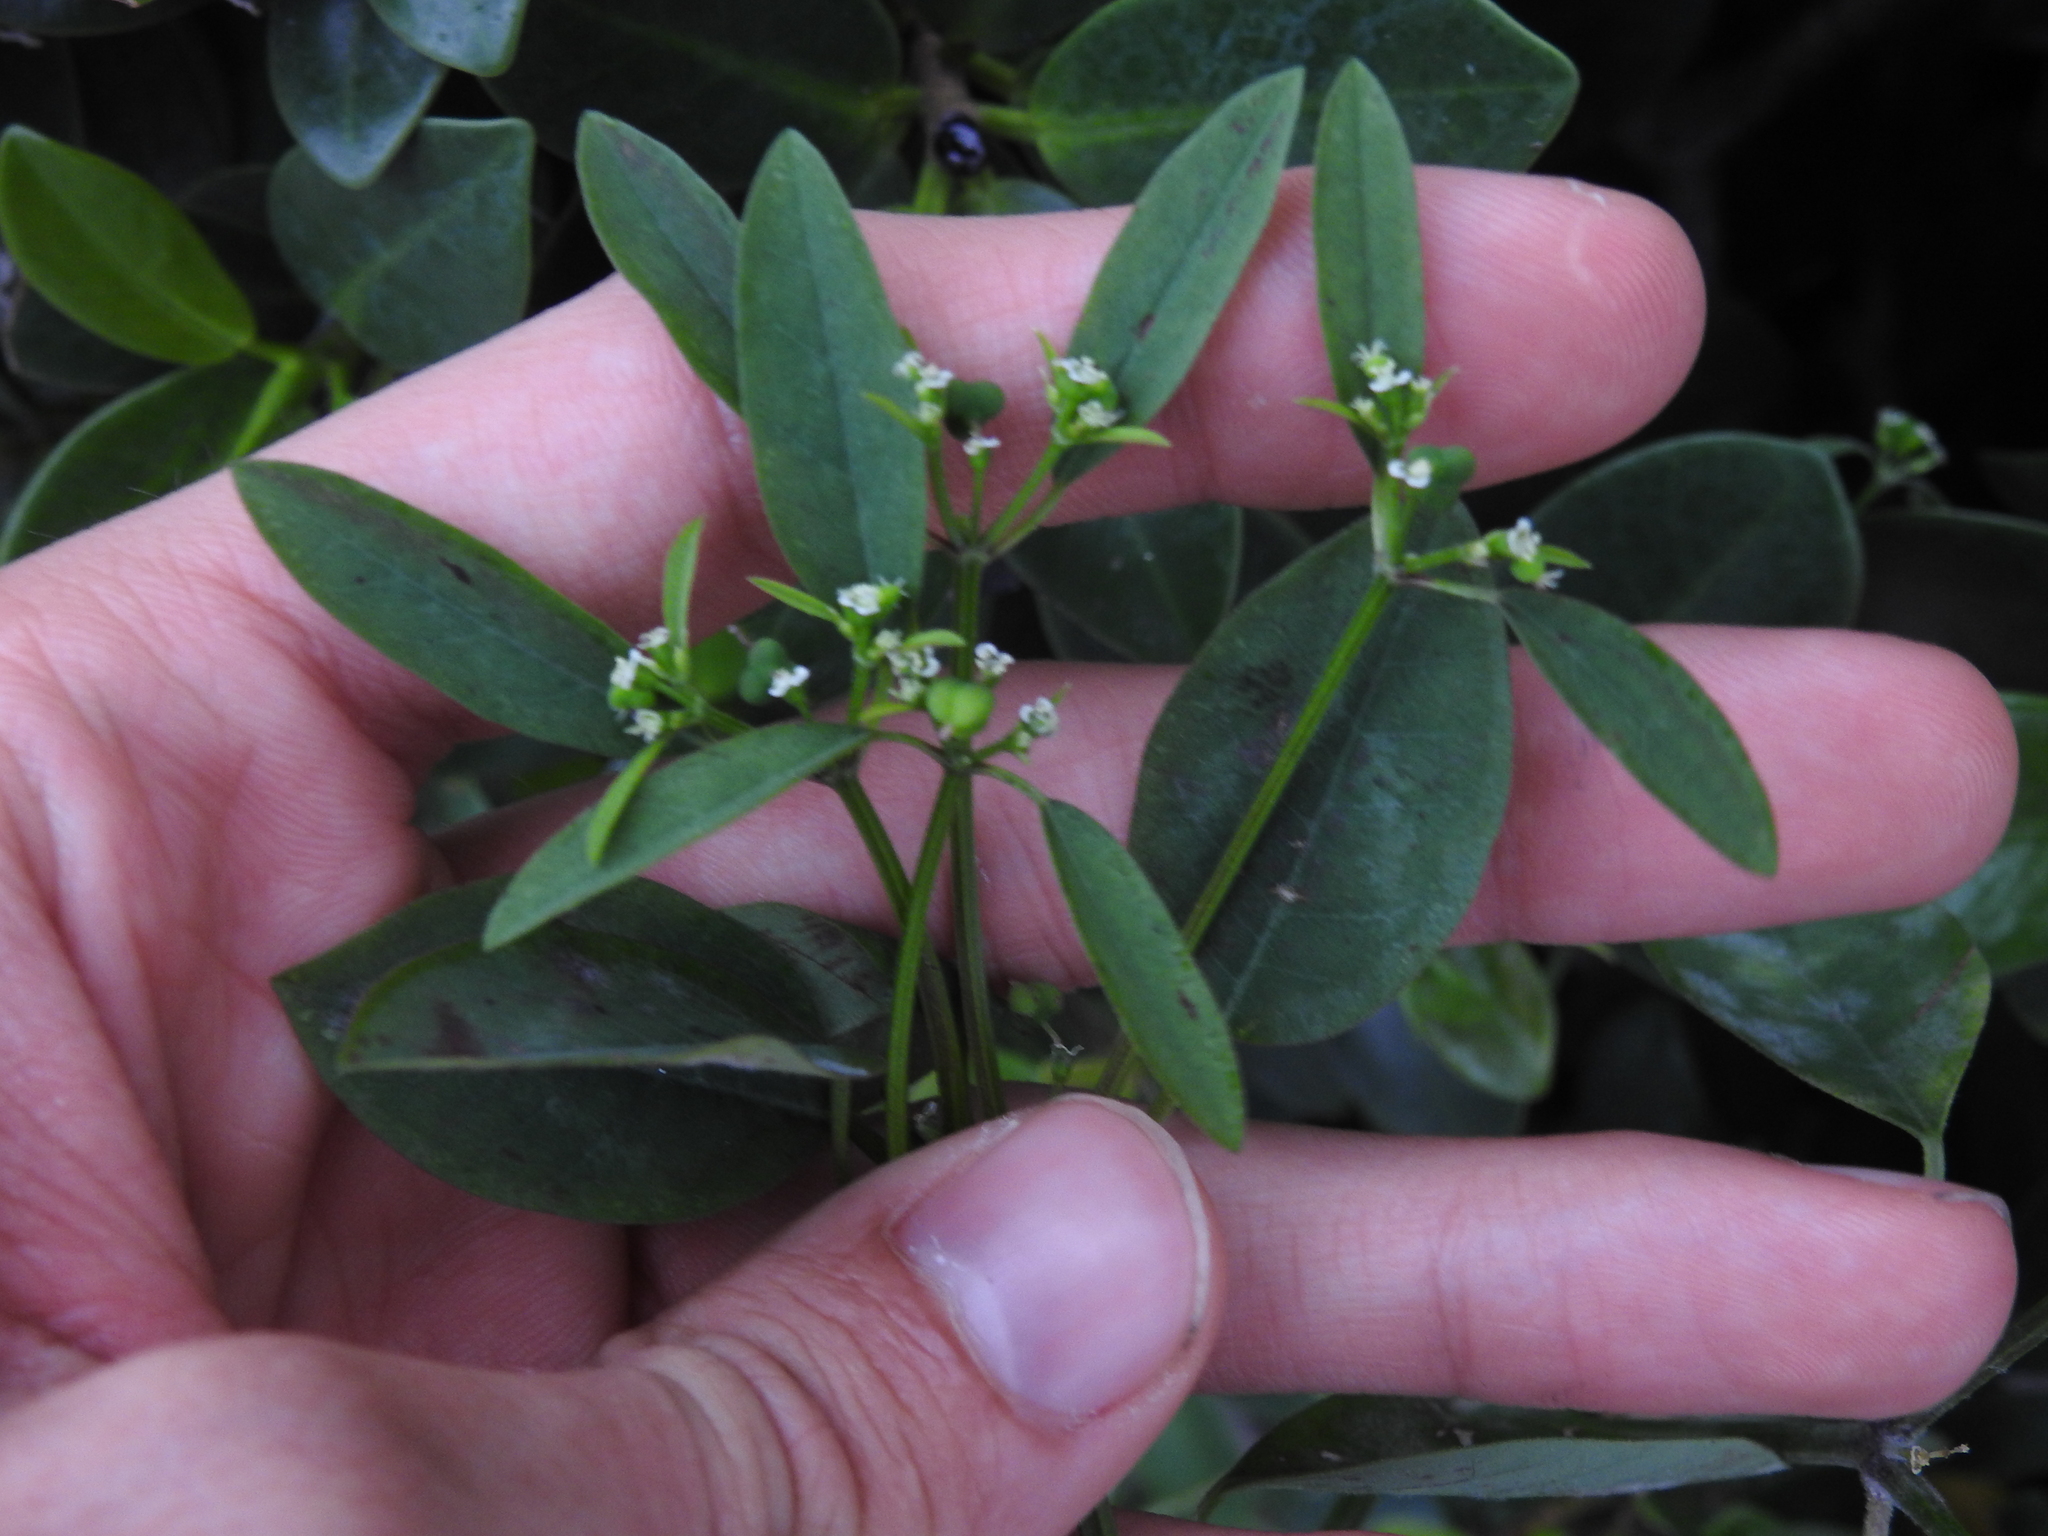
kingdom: Plantae
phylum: Tracheophyta
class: Magnoliopsida
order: Malpighiales
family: Euphorbiaceae
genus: Euphorbia
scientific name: Euphorbia graminea
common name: Grassleaf spurge
